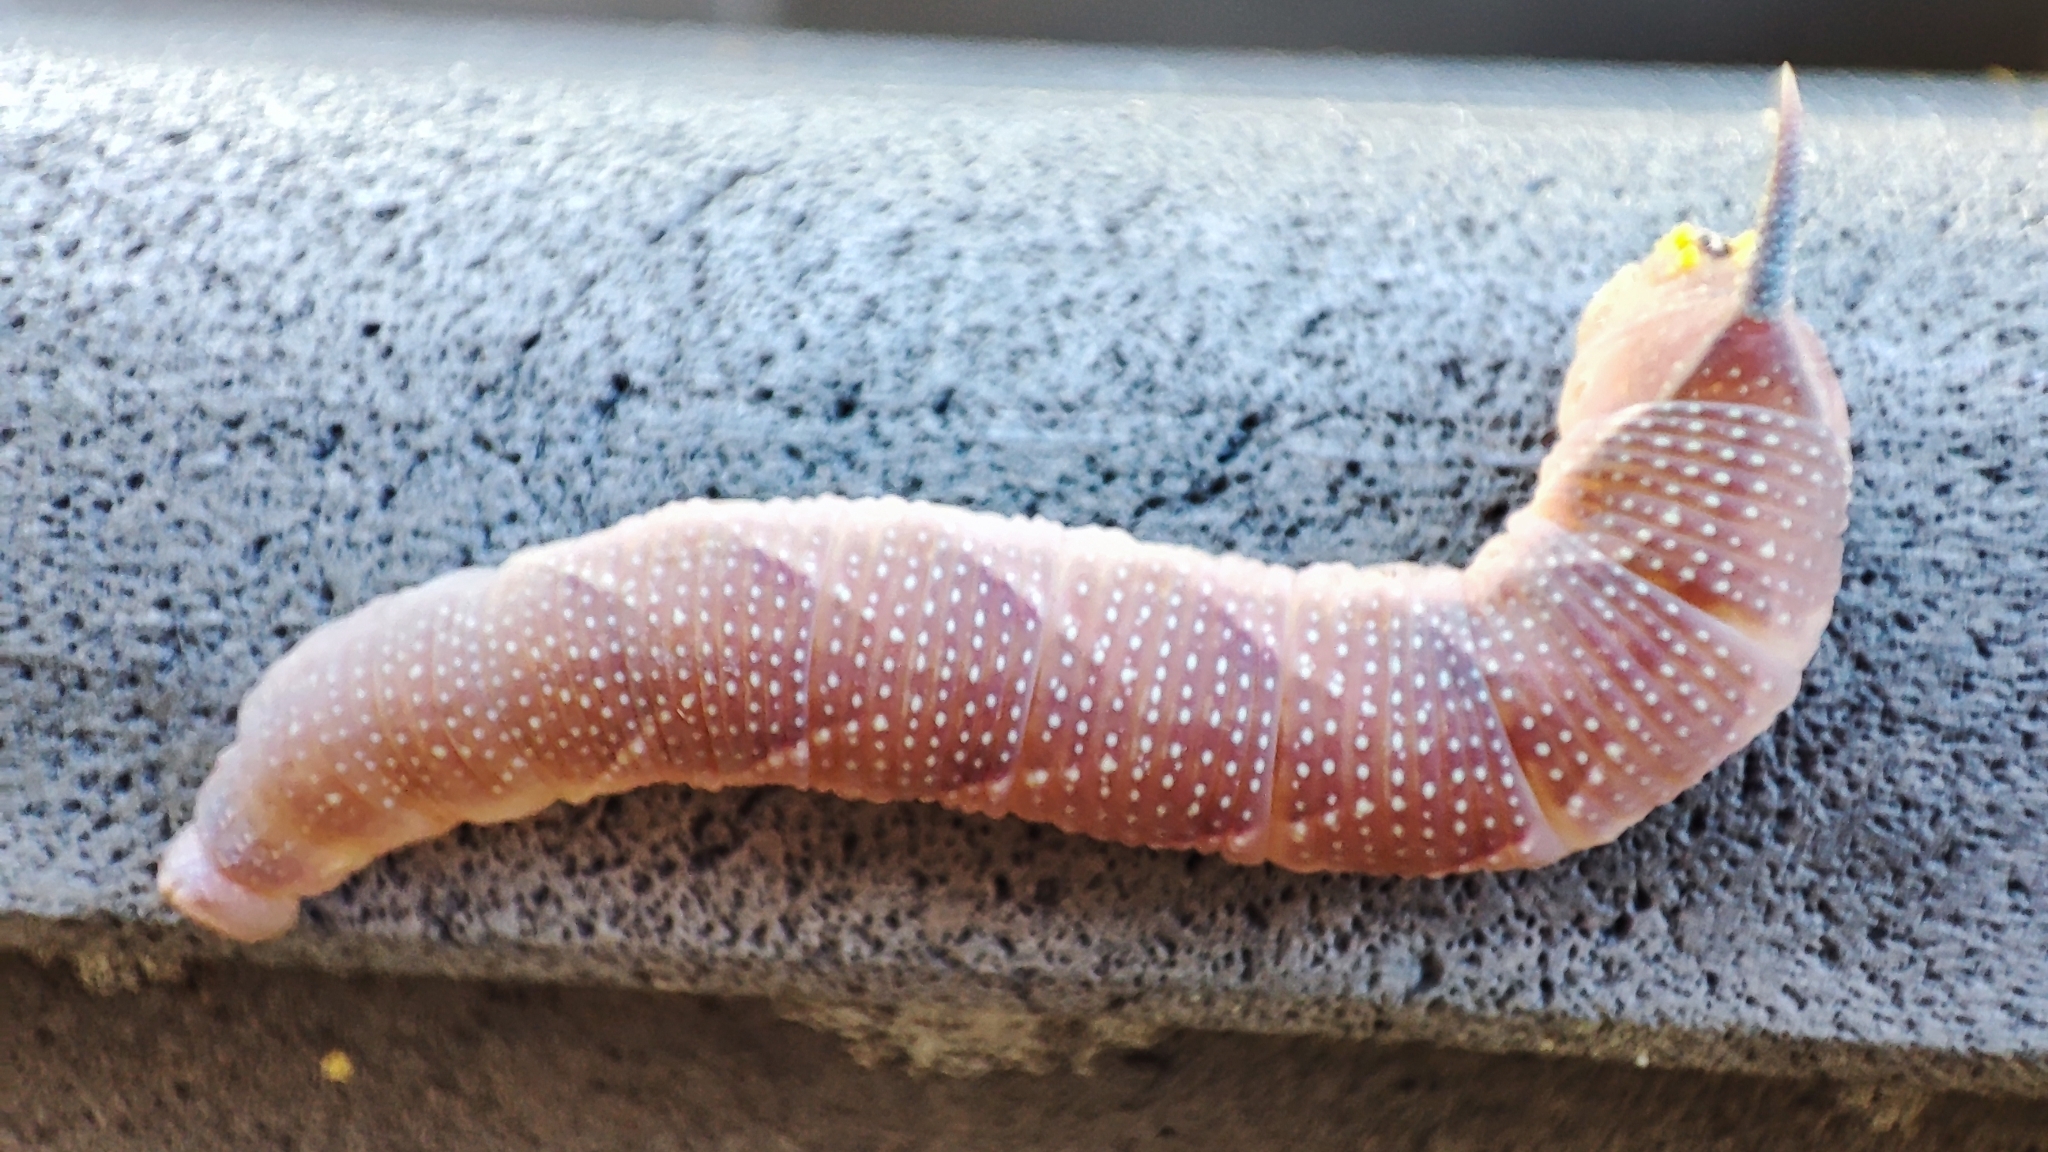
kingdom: Animalia
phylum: Arthropoda
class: Insecta
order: Lepidoptera
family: Sphingidae
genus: Mimas
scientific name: Mimas tiliae
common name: Lime hawk-moth
